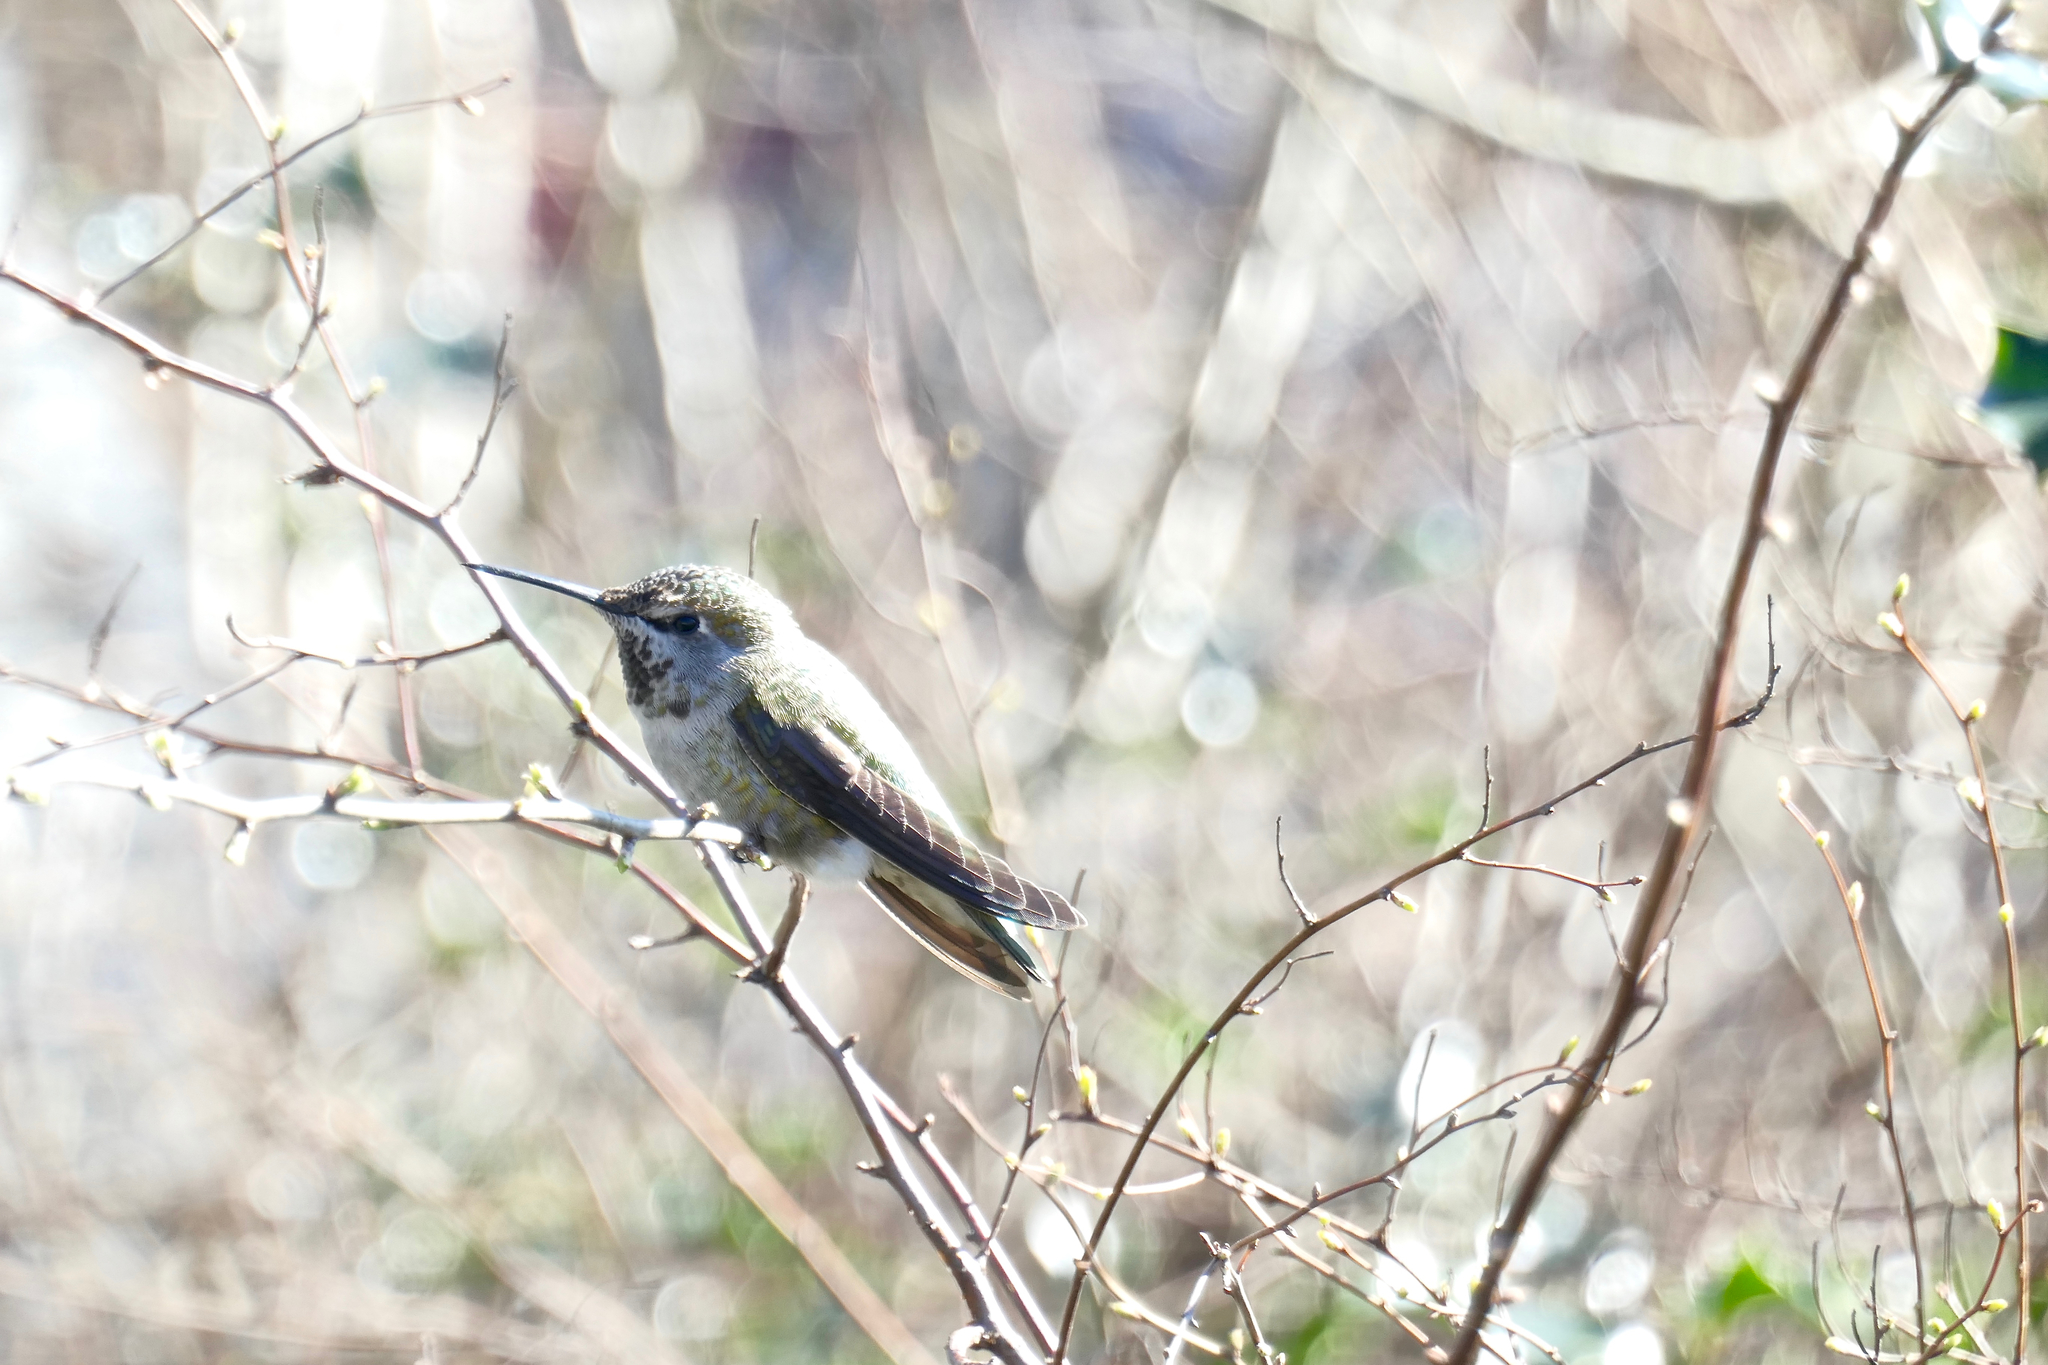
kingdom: Animalia
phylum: Chordata
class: Aves
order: Apodiformes
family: Trochilidae
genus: Calypte
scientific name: Calypte anna
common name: Anna's hummingbird
